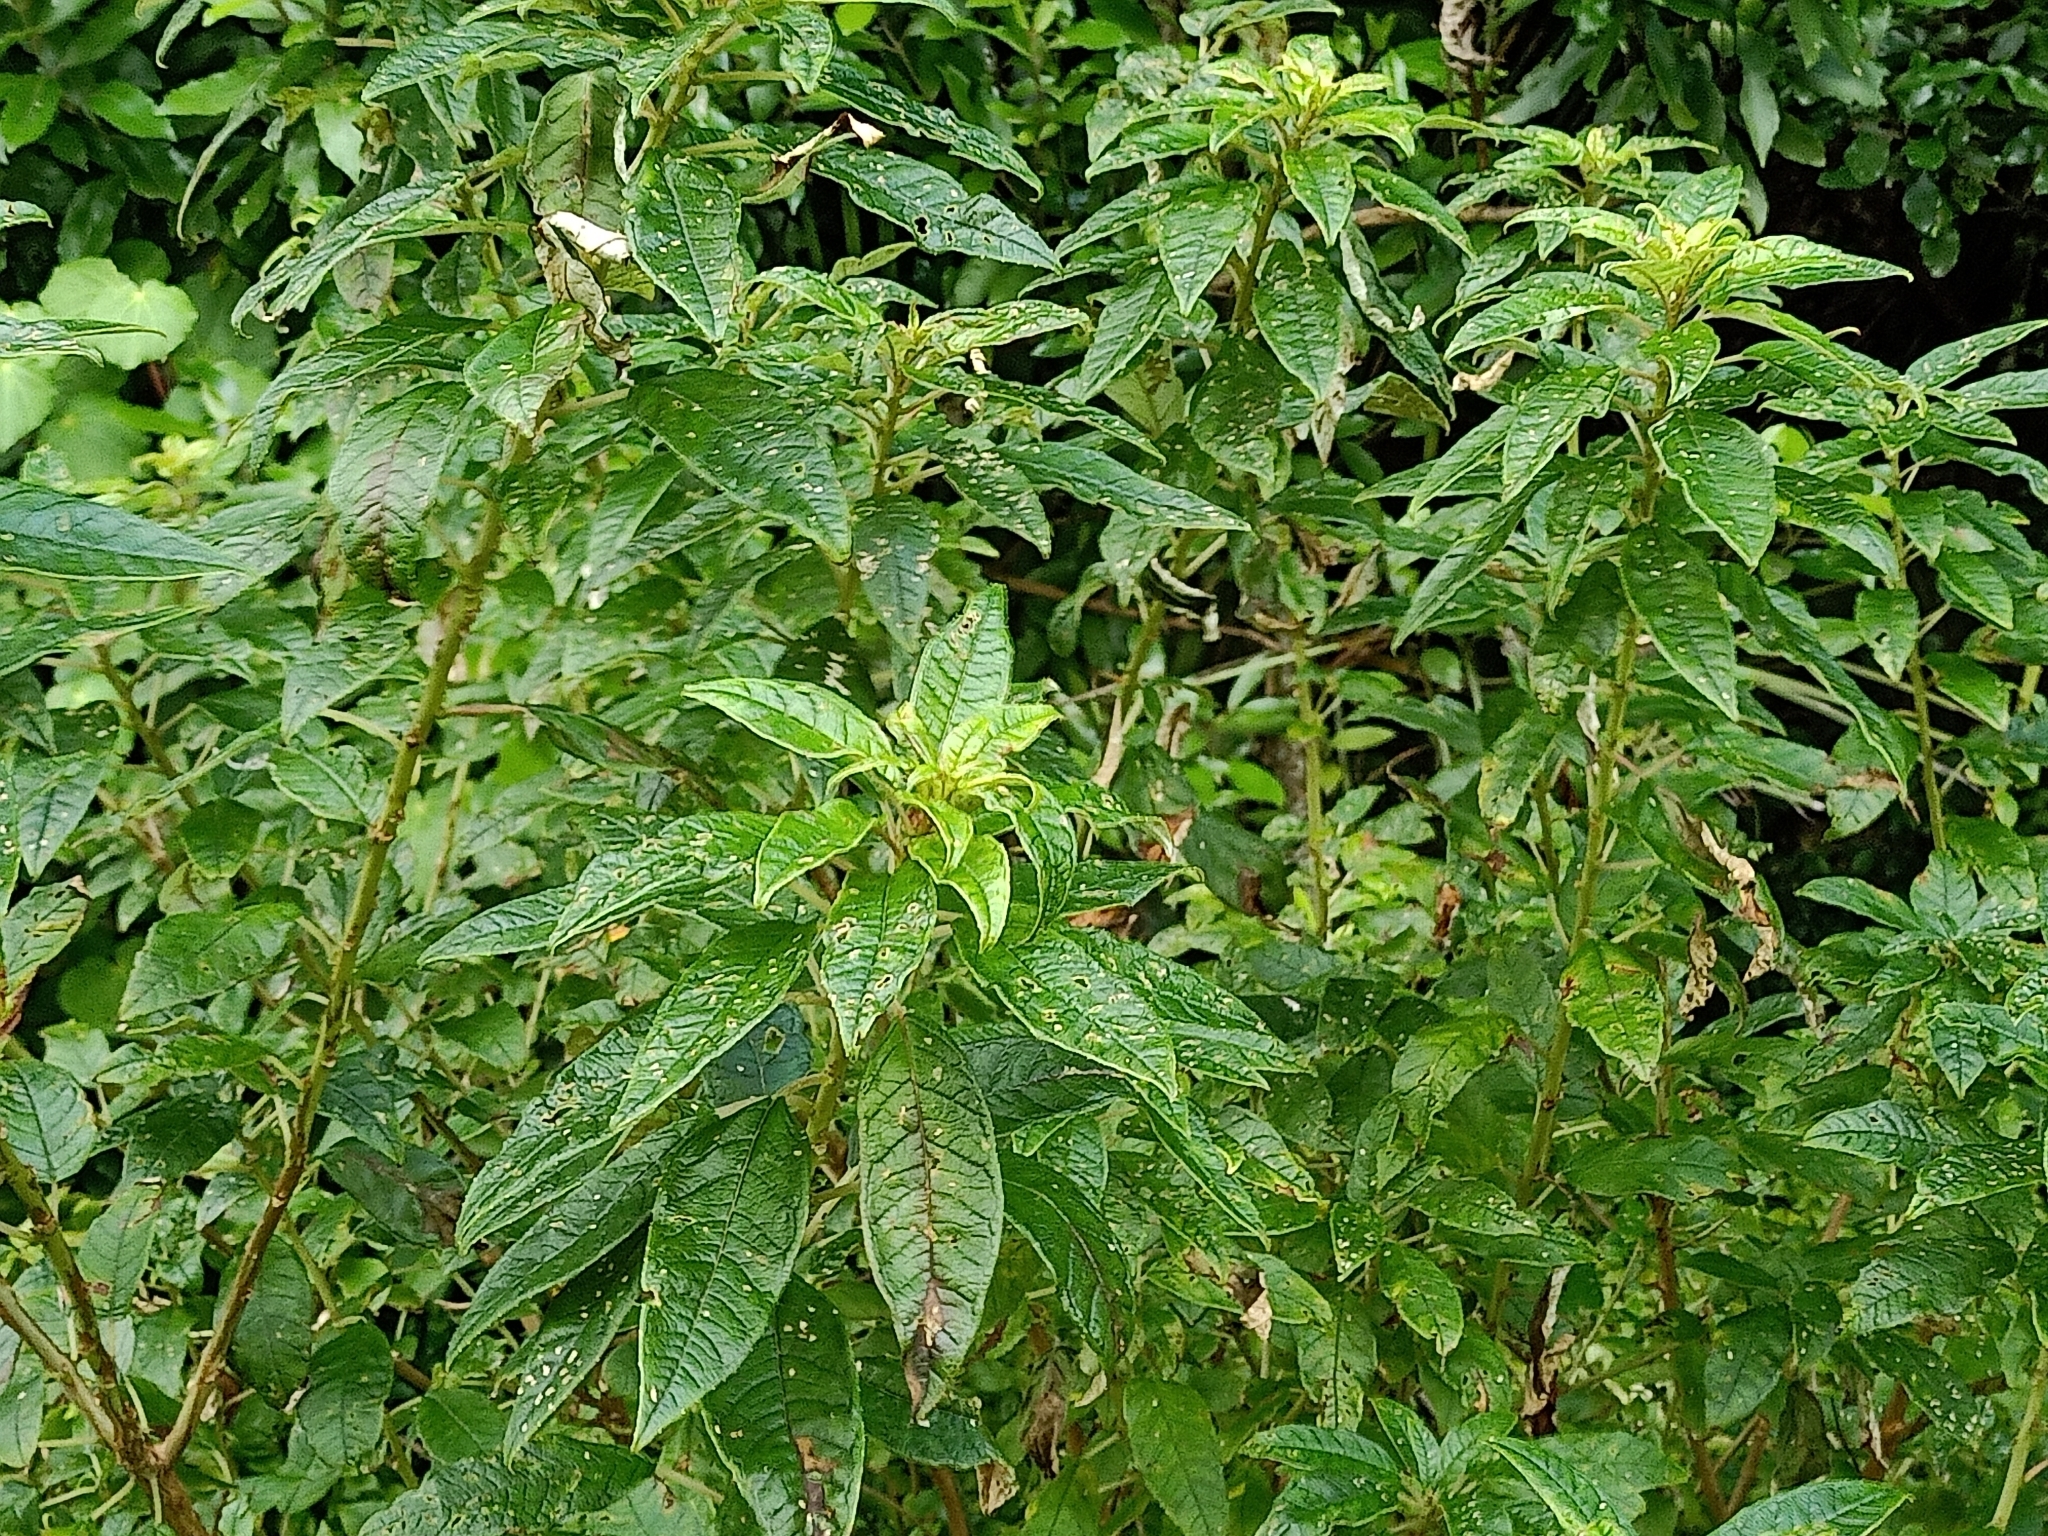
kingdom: Plantae
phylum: Tracheophyta
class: Magnoliopsida
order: Myrtales
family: Onagraceae
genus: Fuchsia
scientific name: Fuchsia excorticata
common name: Tree fuchsia
